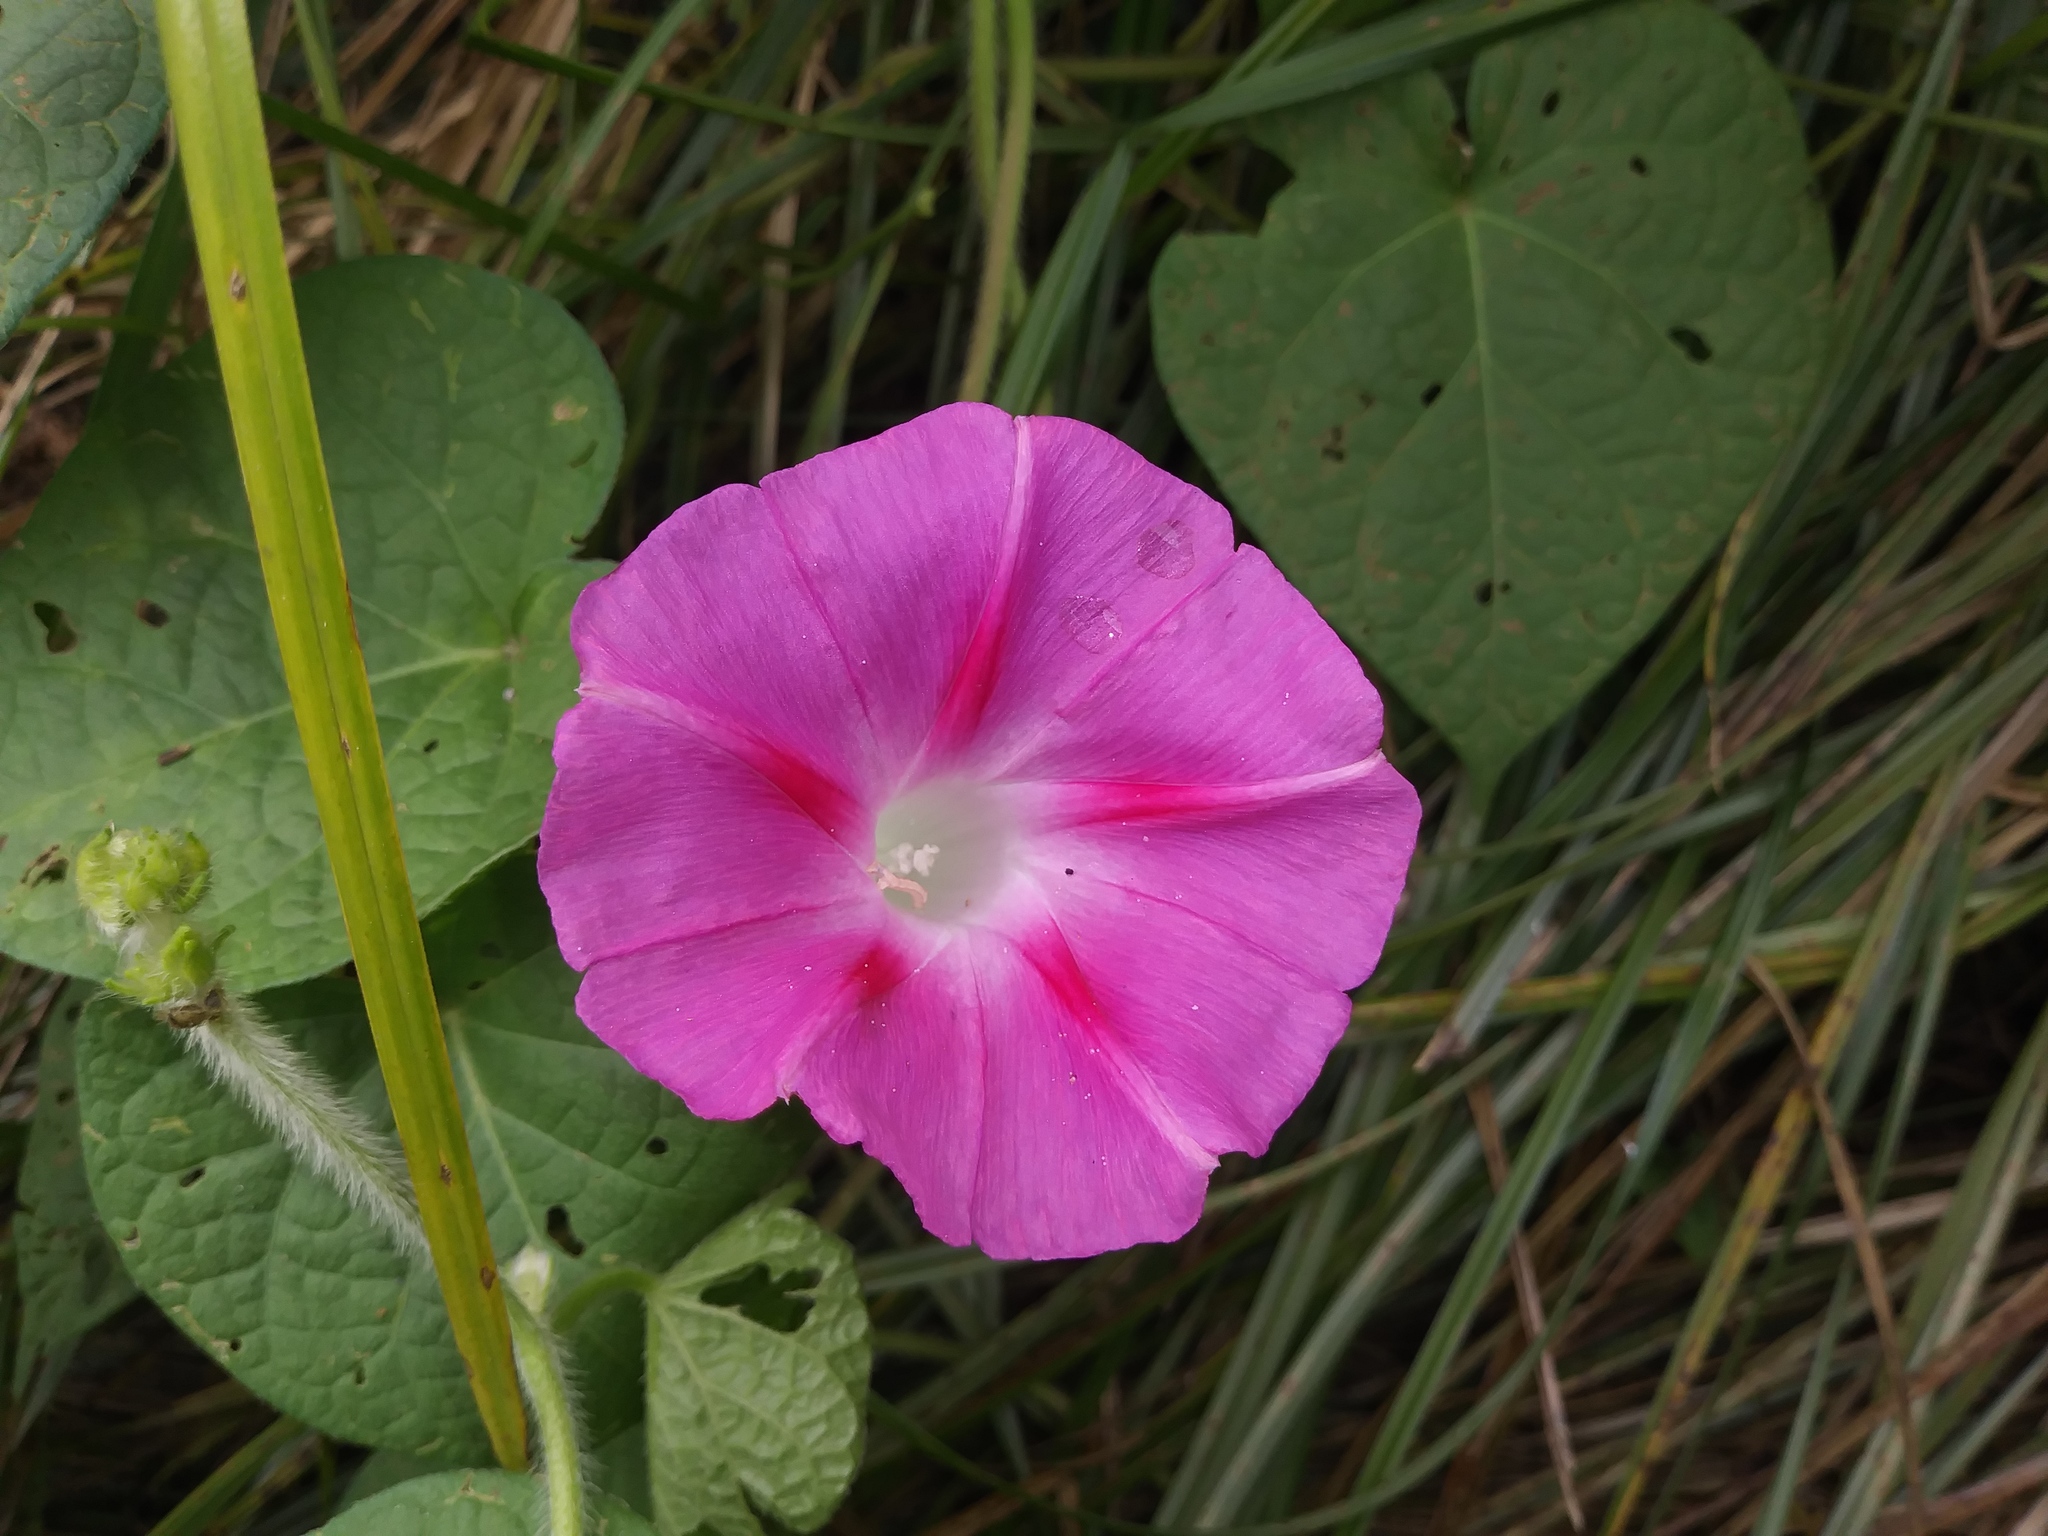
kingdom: Plantae
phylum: Tracheophyta
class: Magnoliopsida
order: Solanales
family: Convolvulaceae
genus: Ipomoea
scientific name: Ipomoea purpurea
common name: Common morning-glory
